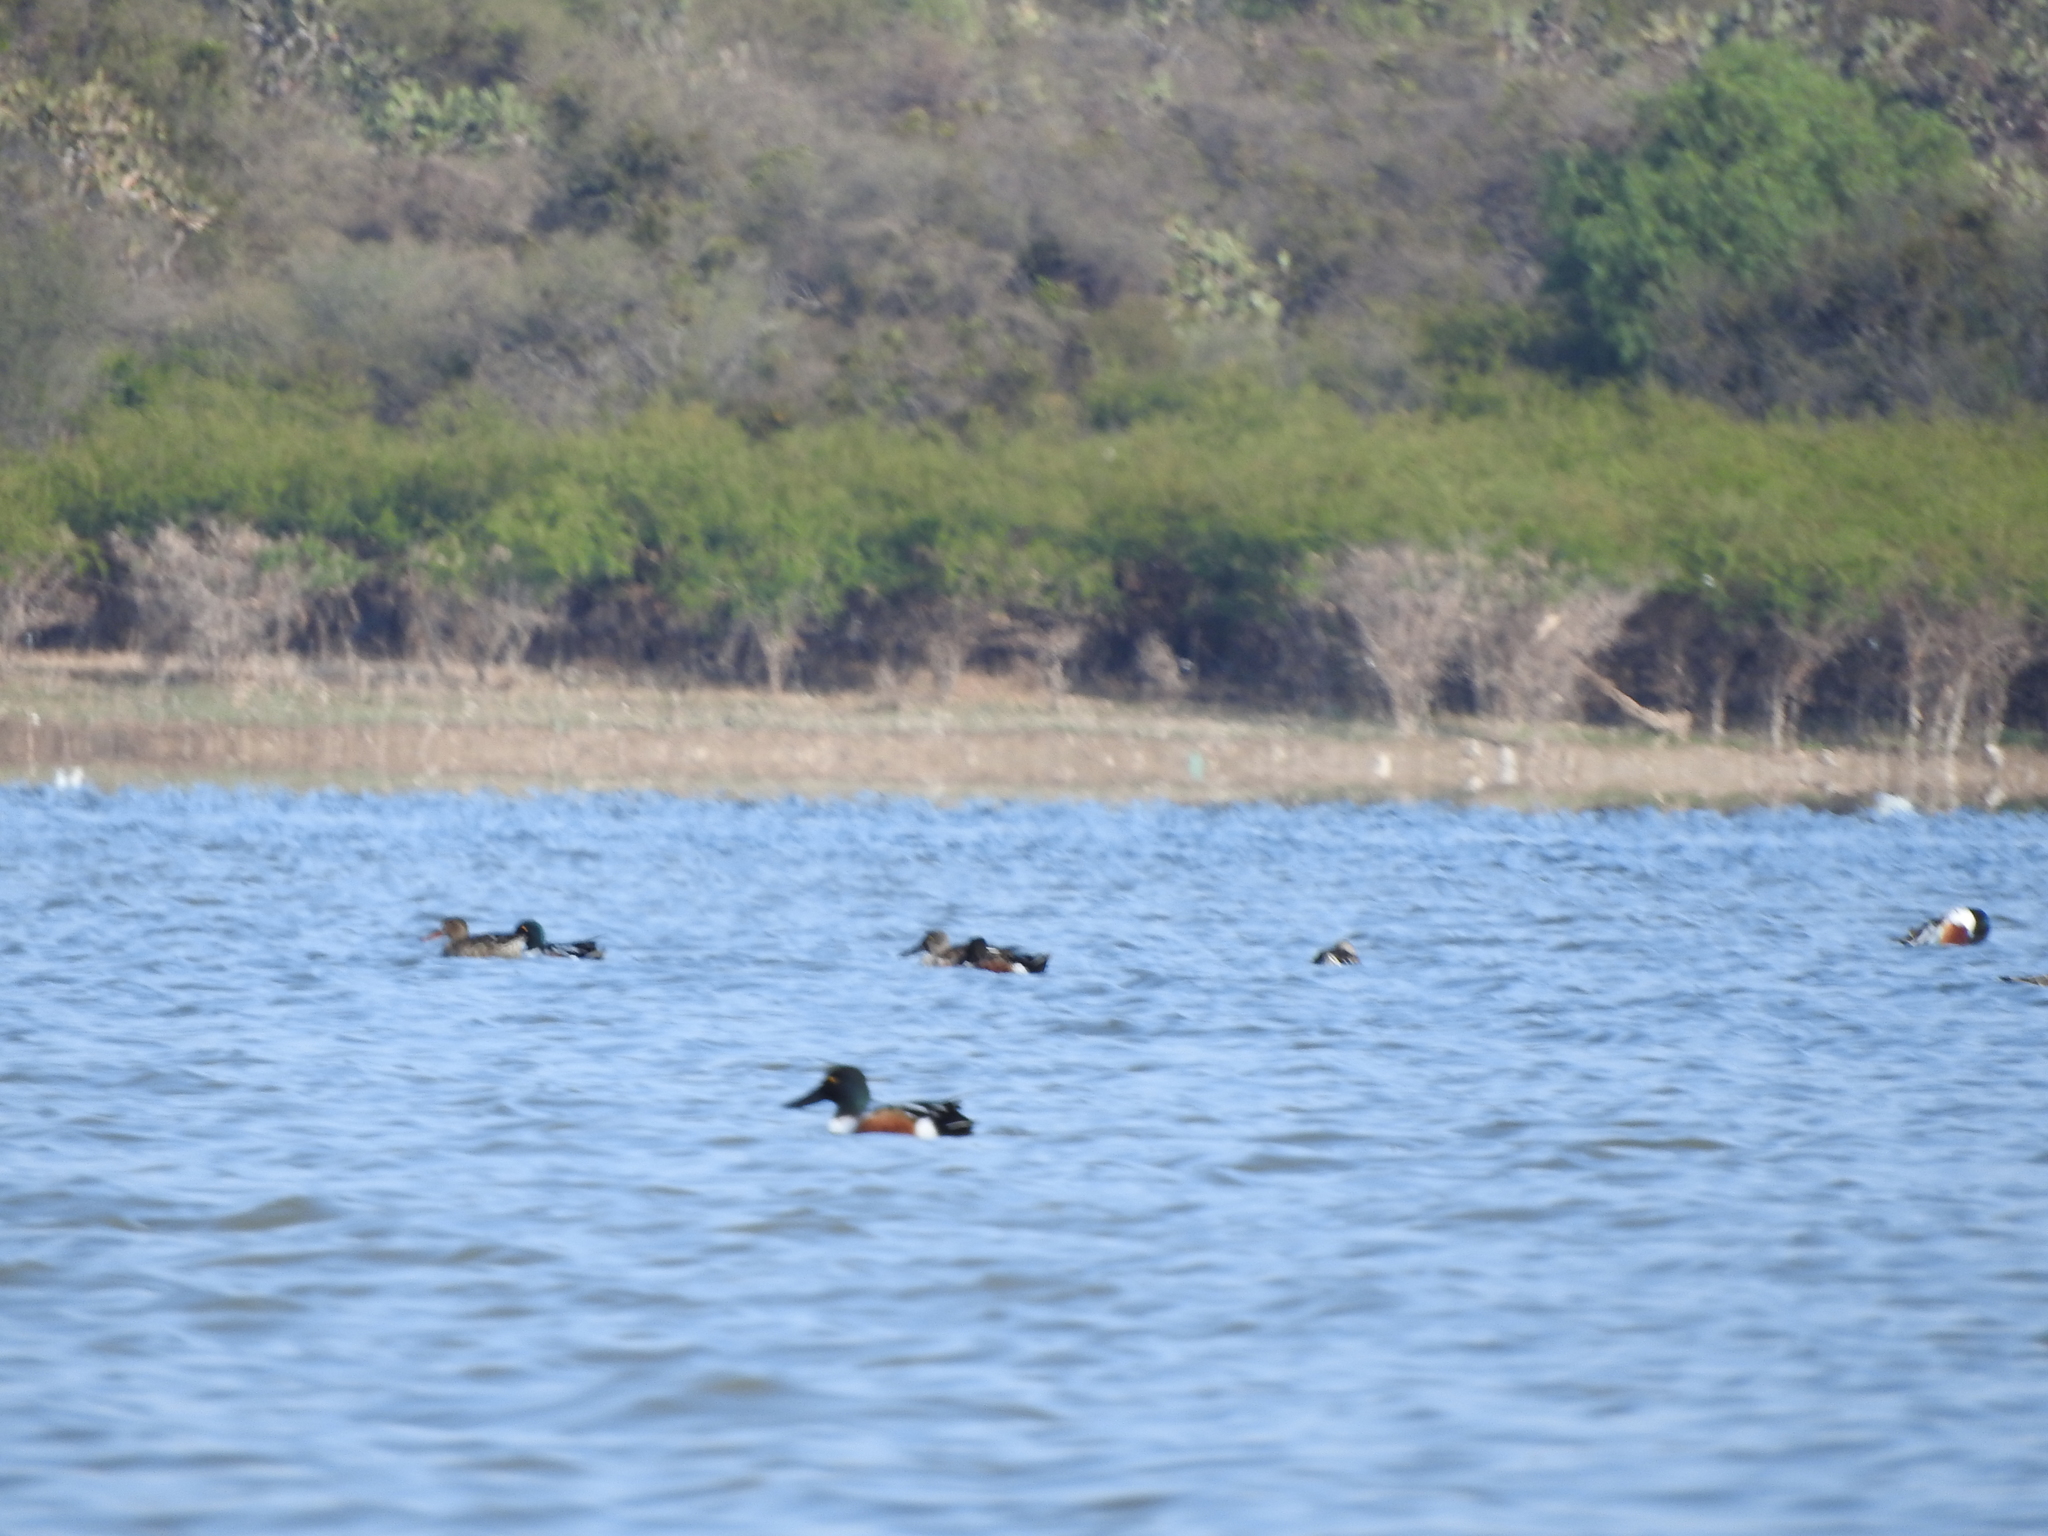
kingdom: Animalia
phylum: Chordata
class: Aves
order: Anseriformes
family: Anatidae
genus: Spatula
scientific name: Spatula clypeata
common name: Northern shoveler
